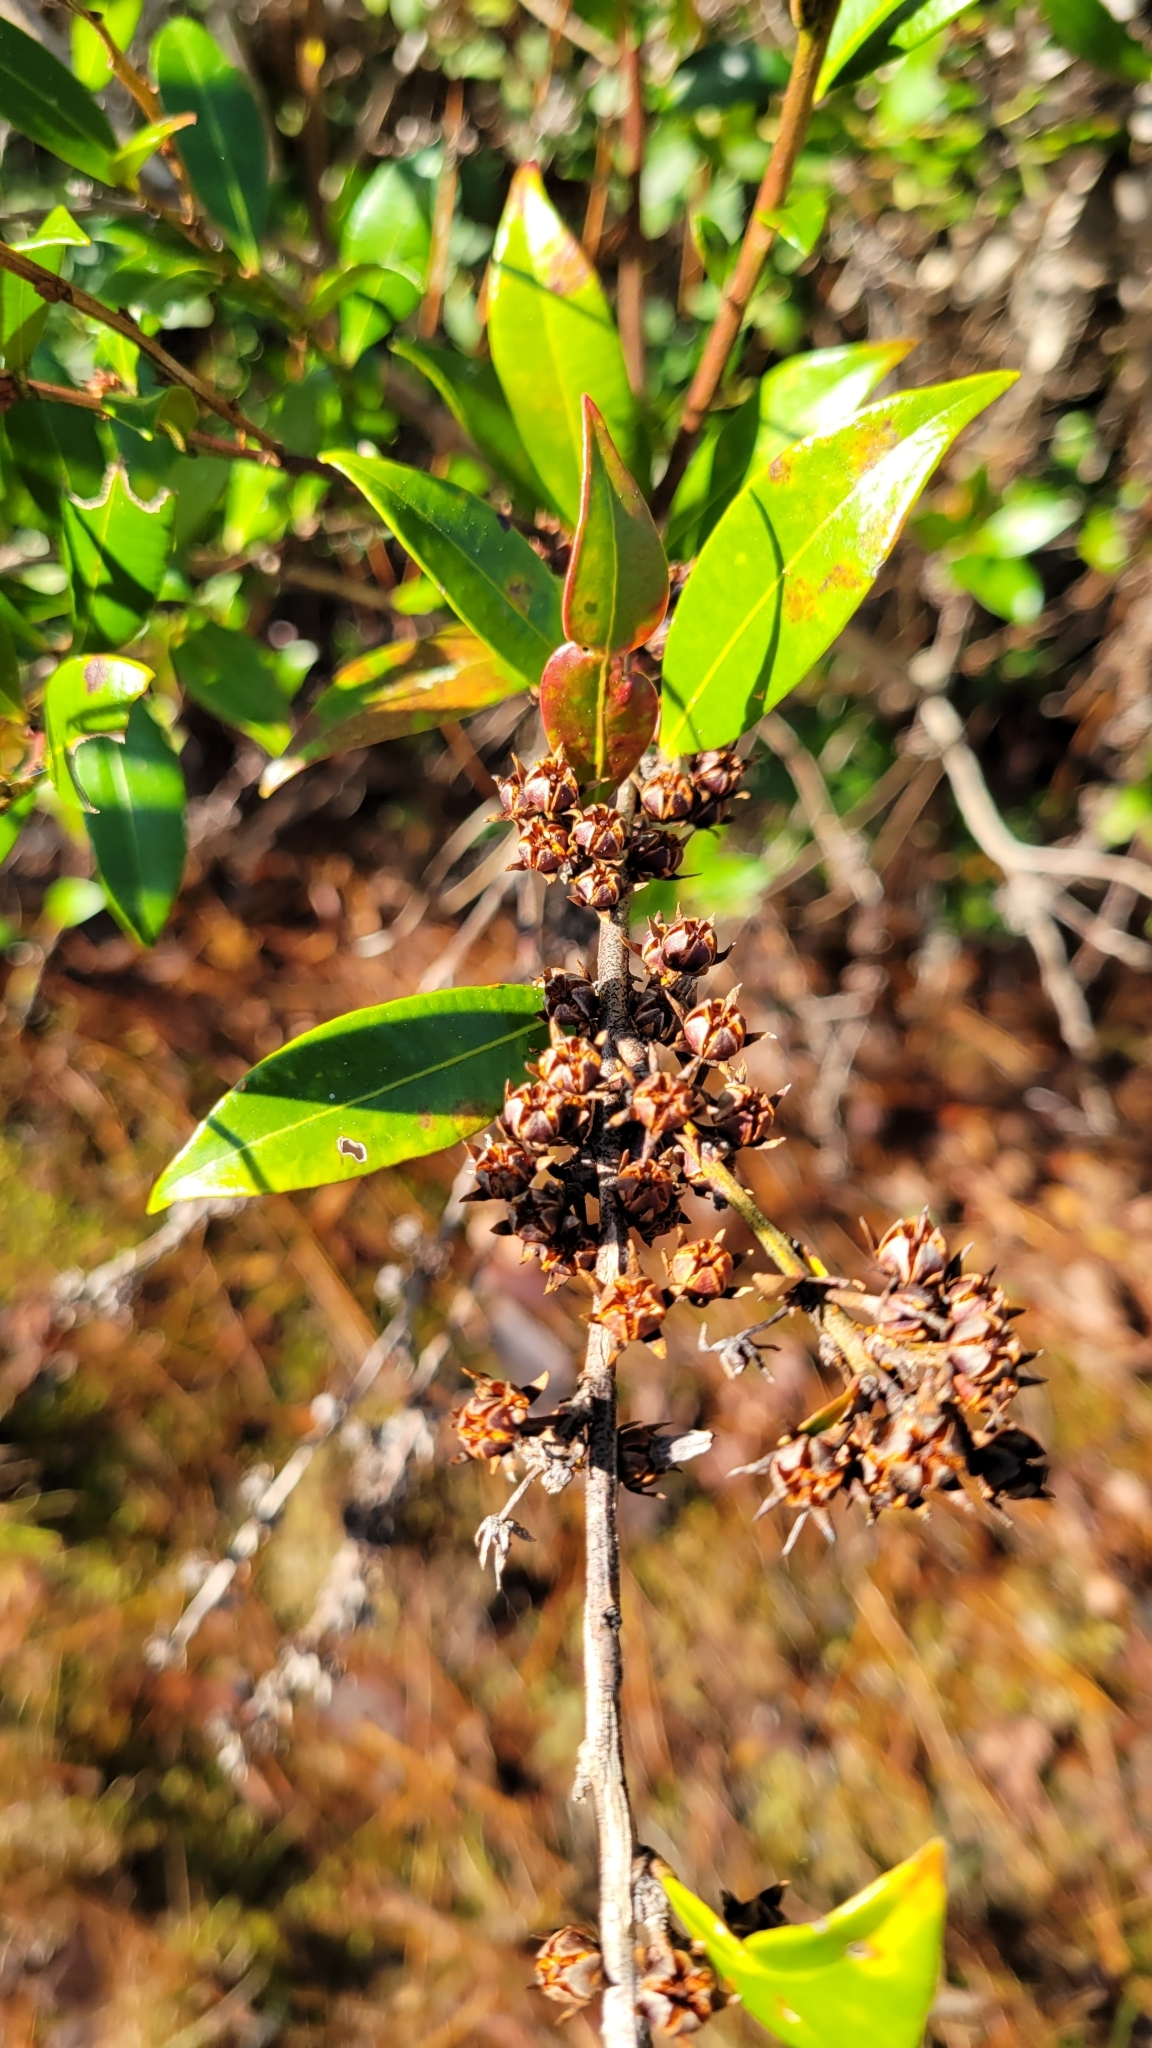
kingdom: Plantae
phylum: Tracheophyta
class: Magnoliopsida
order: Ericales
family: Ericaceae
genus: Lyonia
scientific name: Lyonia lucida
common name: Fetterbush
